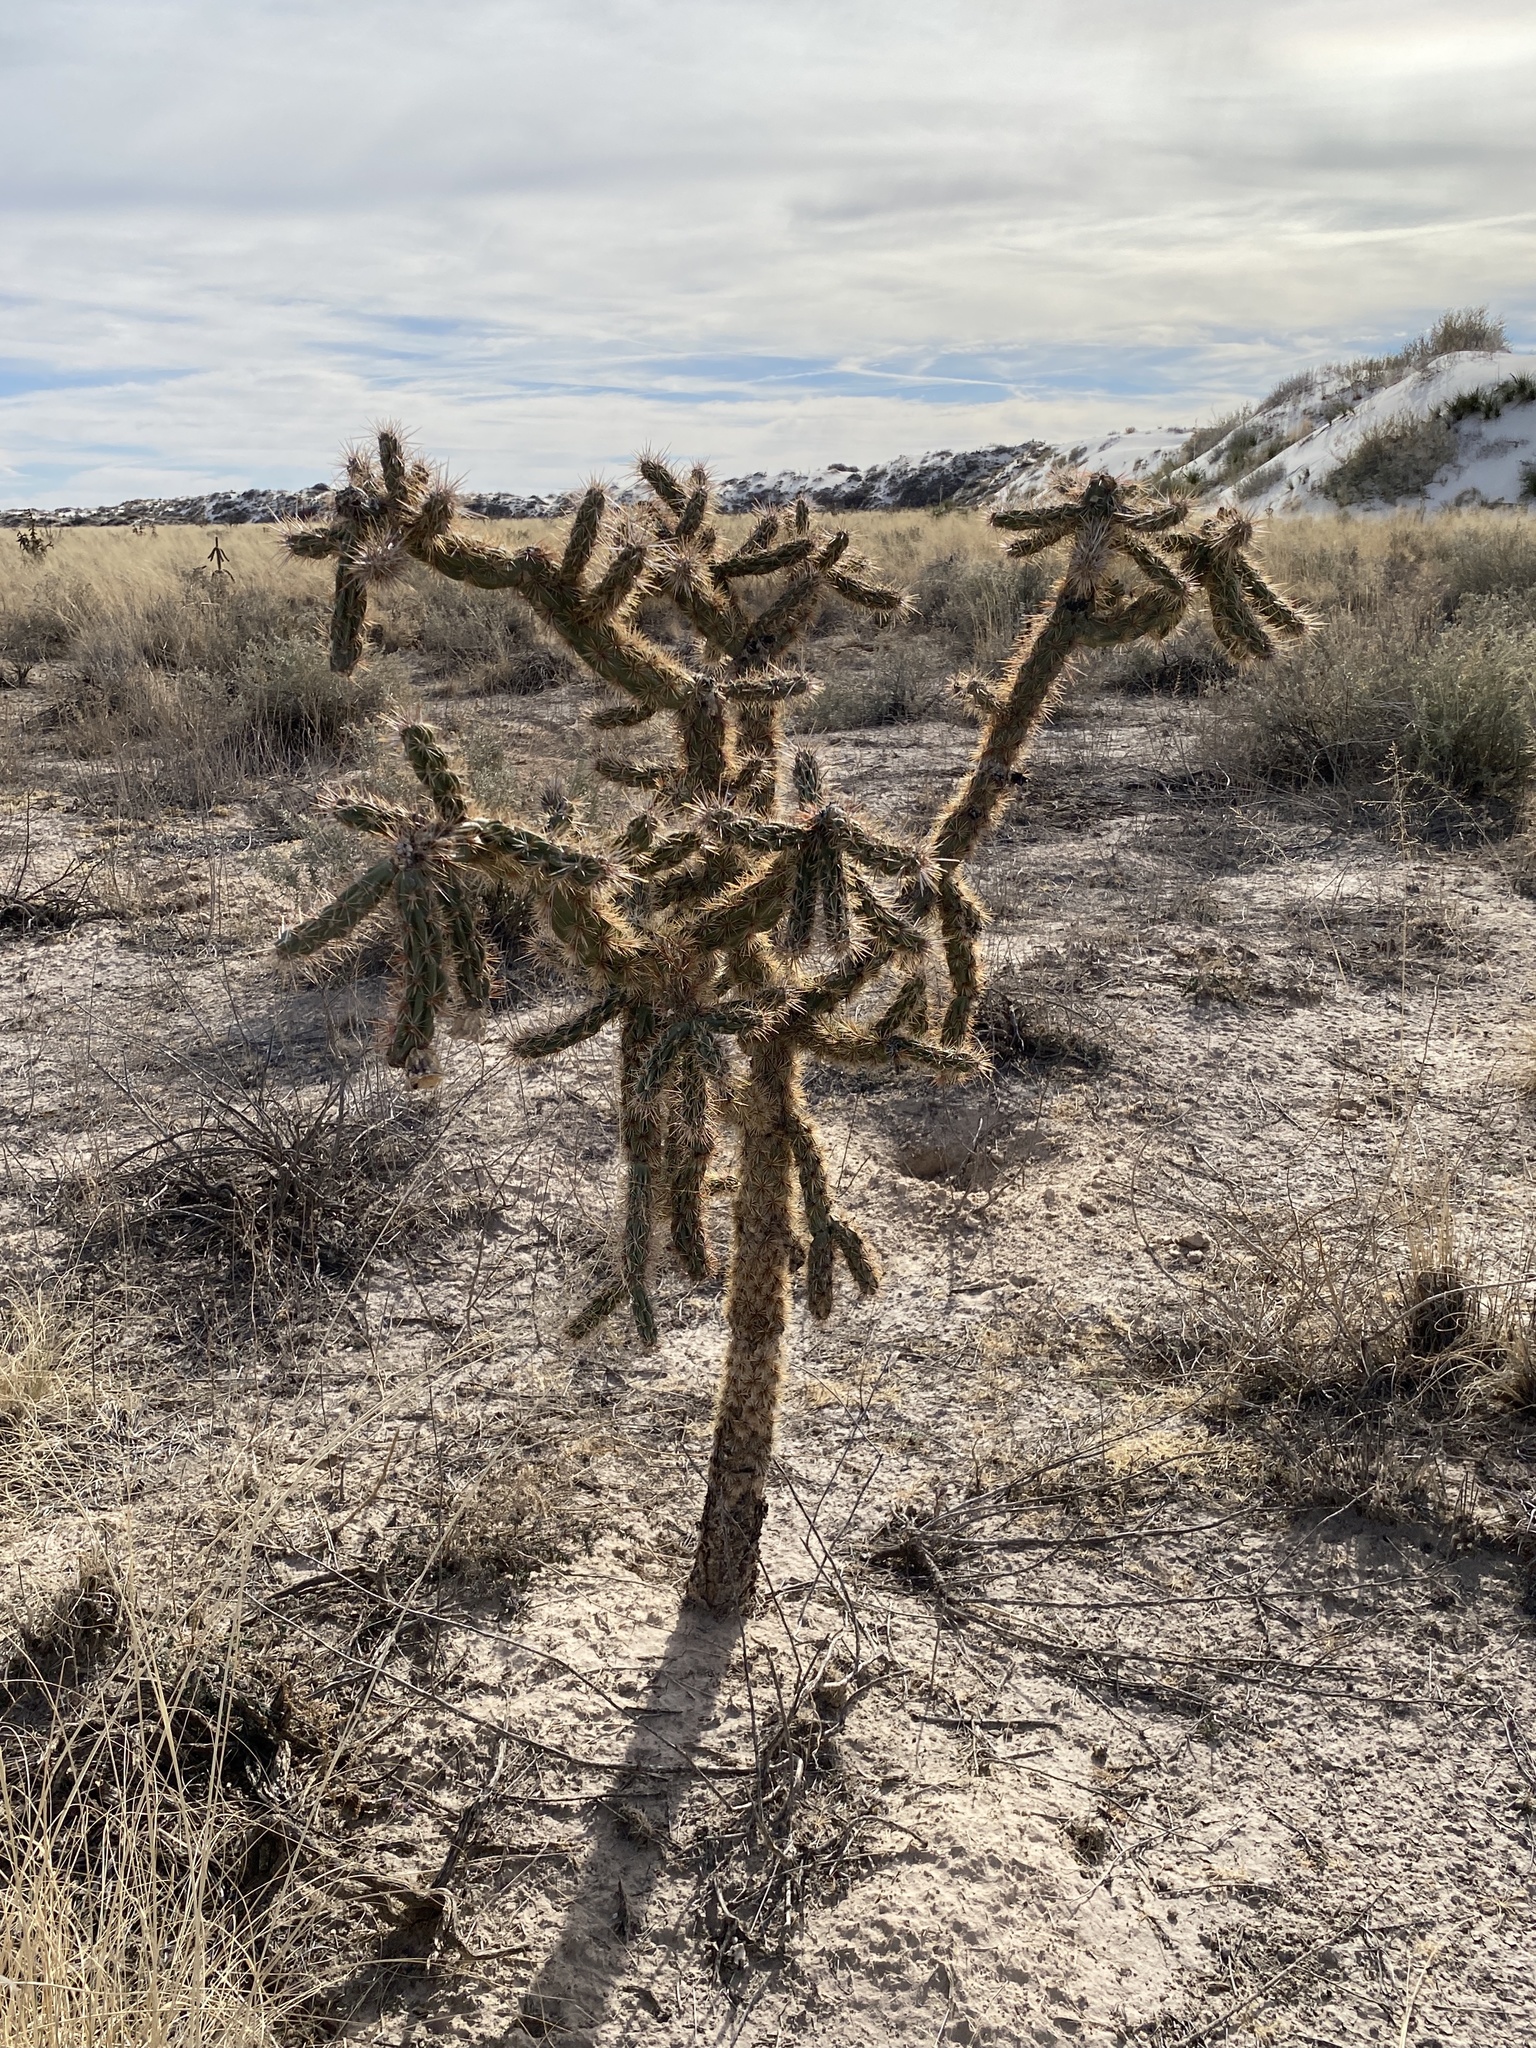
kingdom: Plantae
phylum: Tracheophyta
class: Magnoliopsida
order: Caryophyllales
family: Cactaceae
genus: Cylindropuntia
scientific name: Cylindropuntia imbricata
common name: Candelabrum cactus
